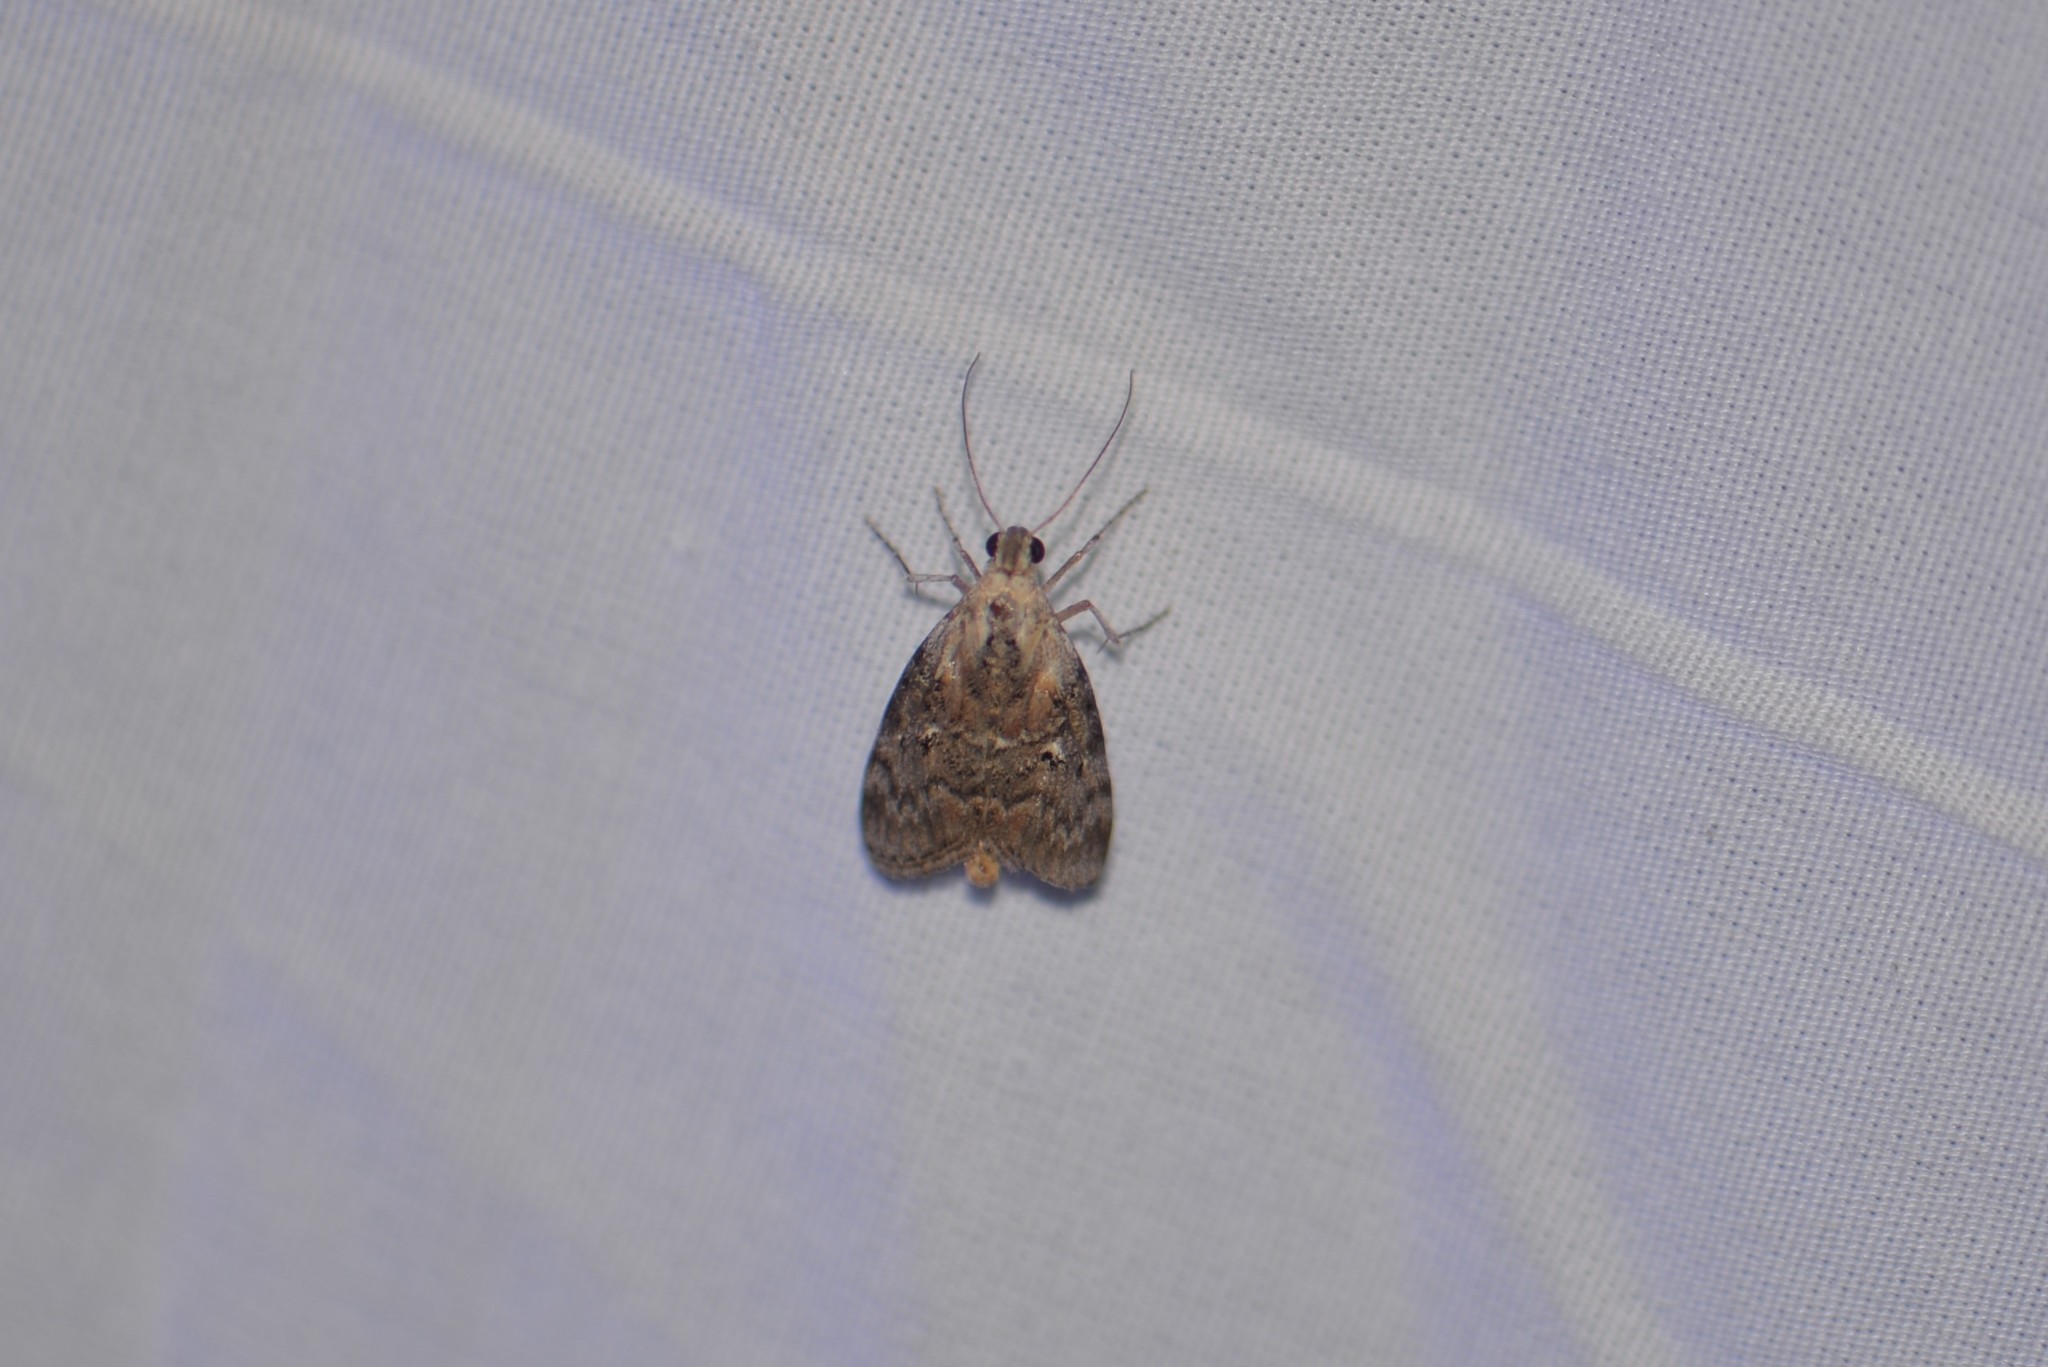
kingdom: Animalia
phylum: Arthropoda
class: Insecta
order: Lepidoptera
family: Pyralidae
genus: Pococera
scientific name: Pococera expandens
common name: Striped oak webworm moth
